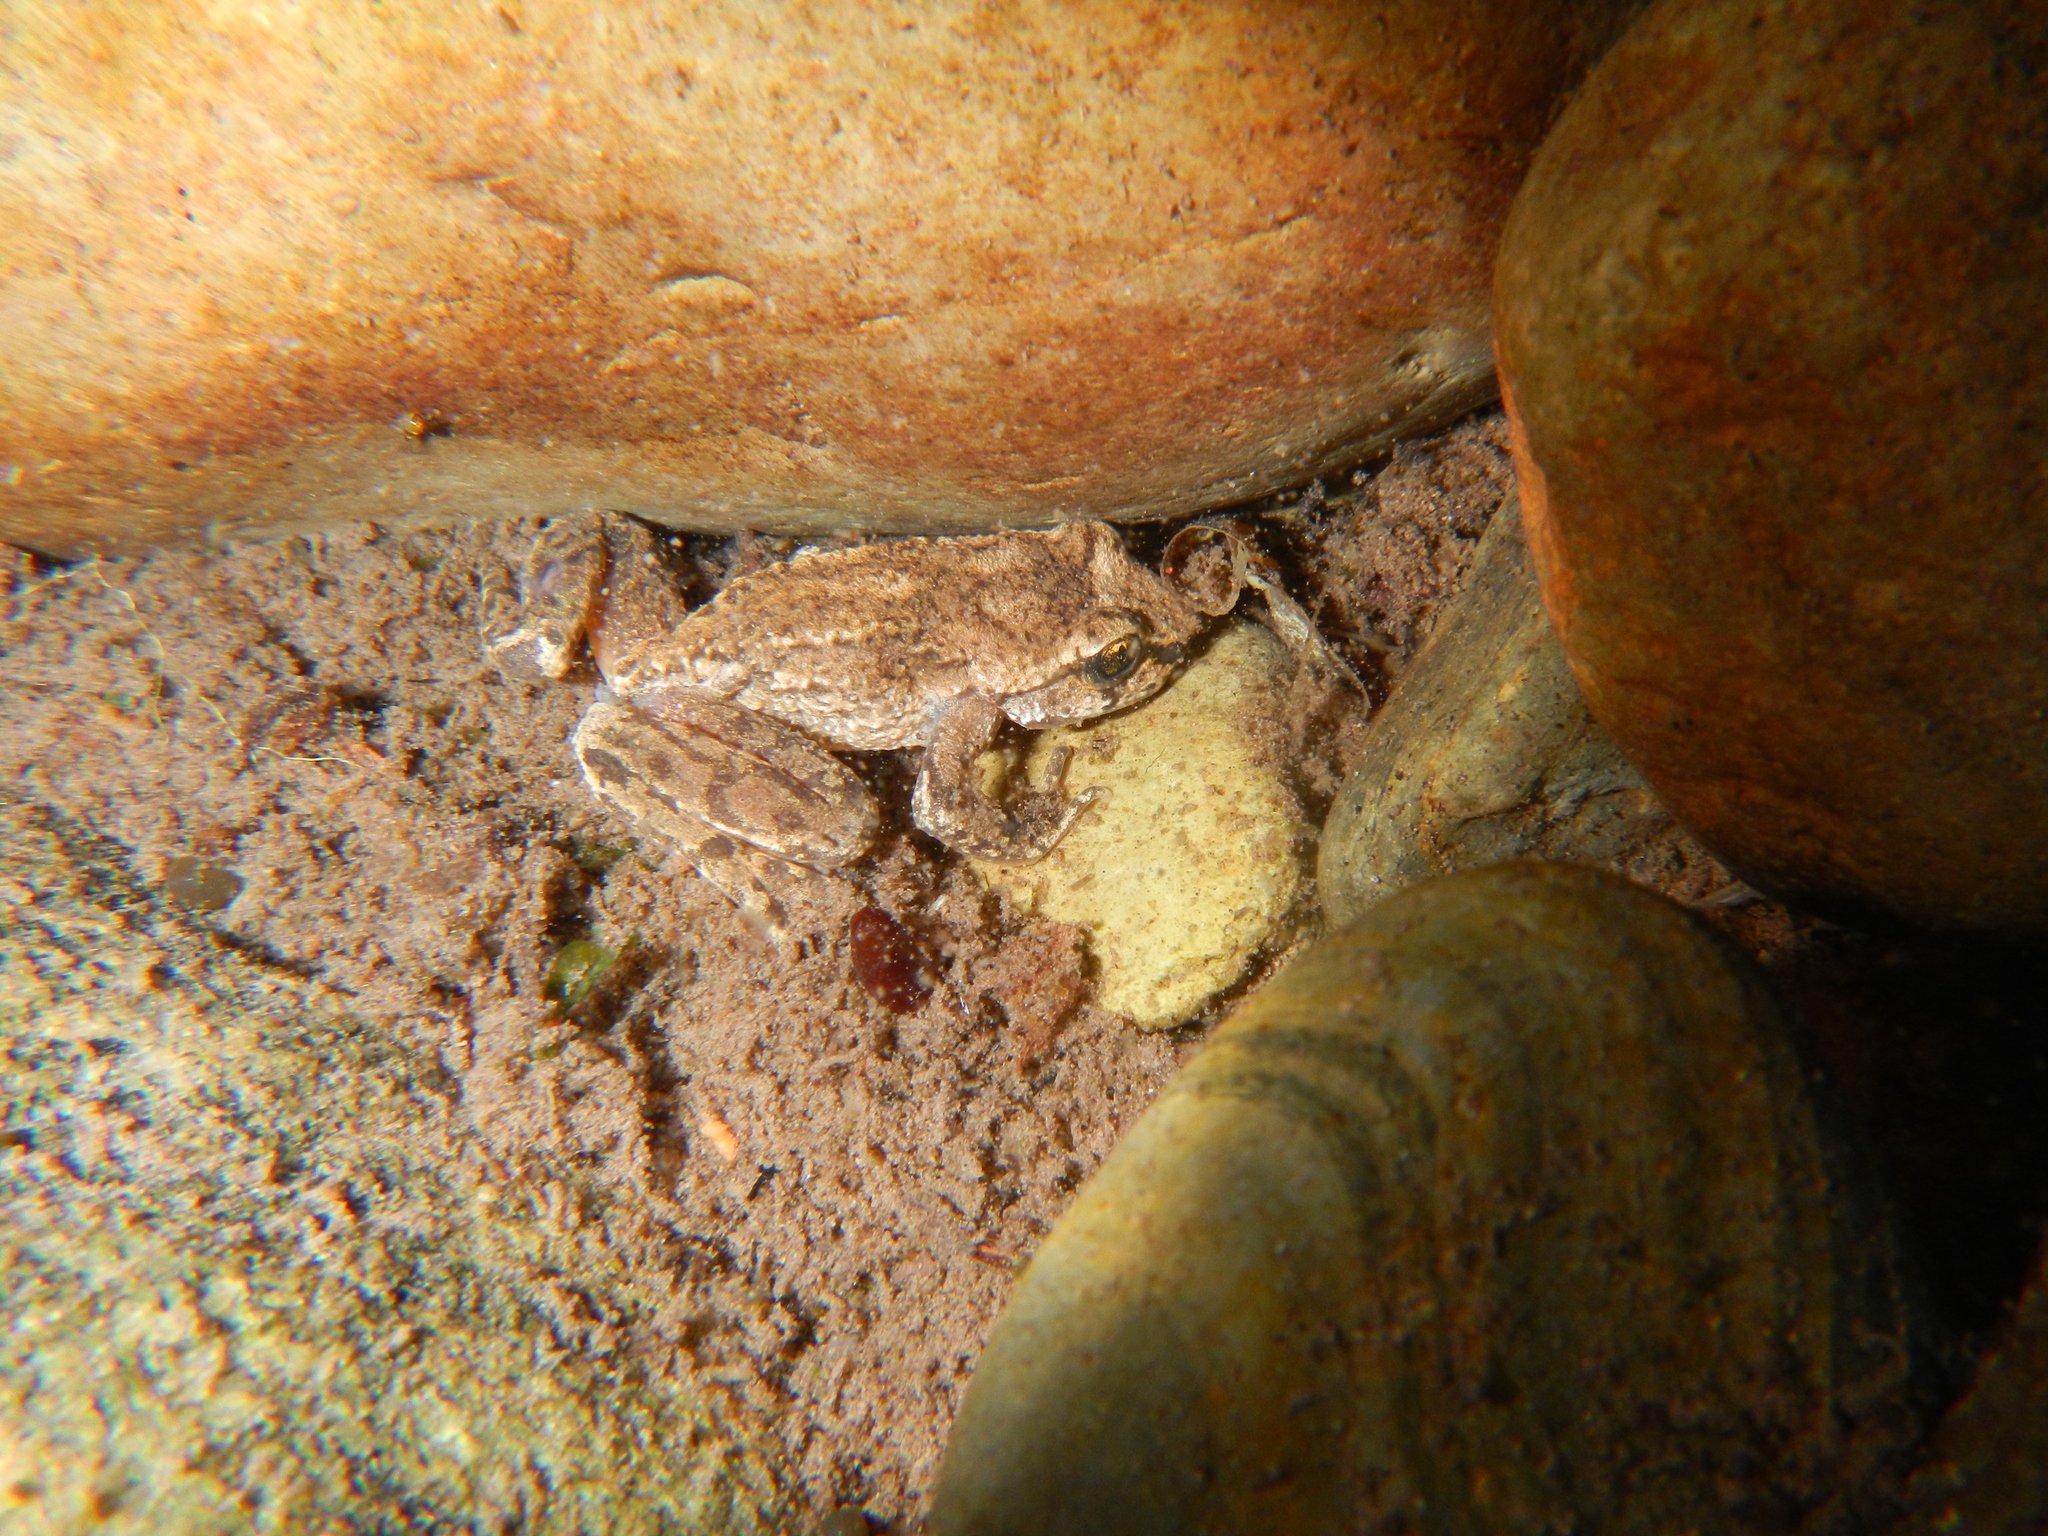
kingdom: Animalia
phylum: Chordata
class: Amphibia
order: Anura
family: Ascaphidae
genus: Ascaphus
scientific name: Ascaphus montanus
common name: Rocky mountain tailed frog
